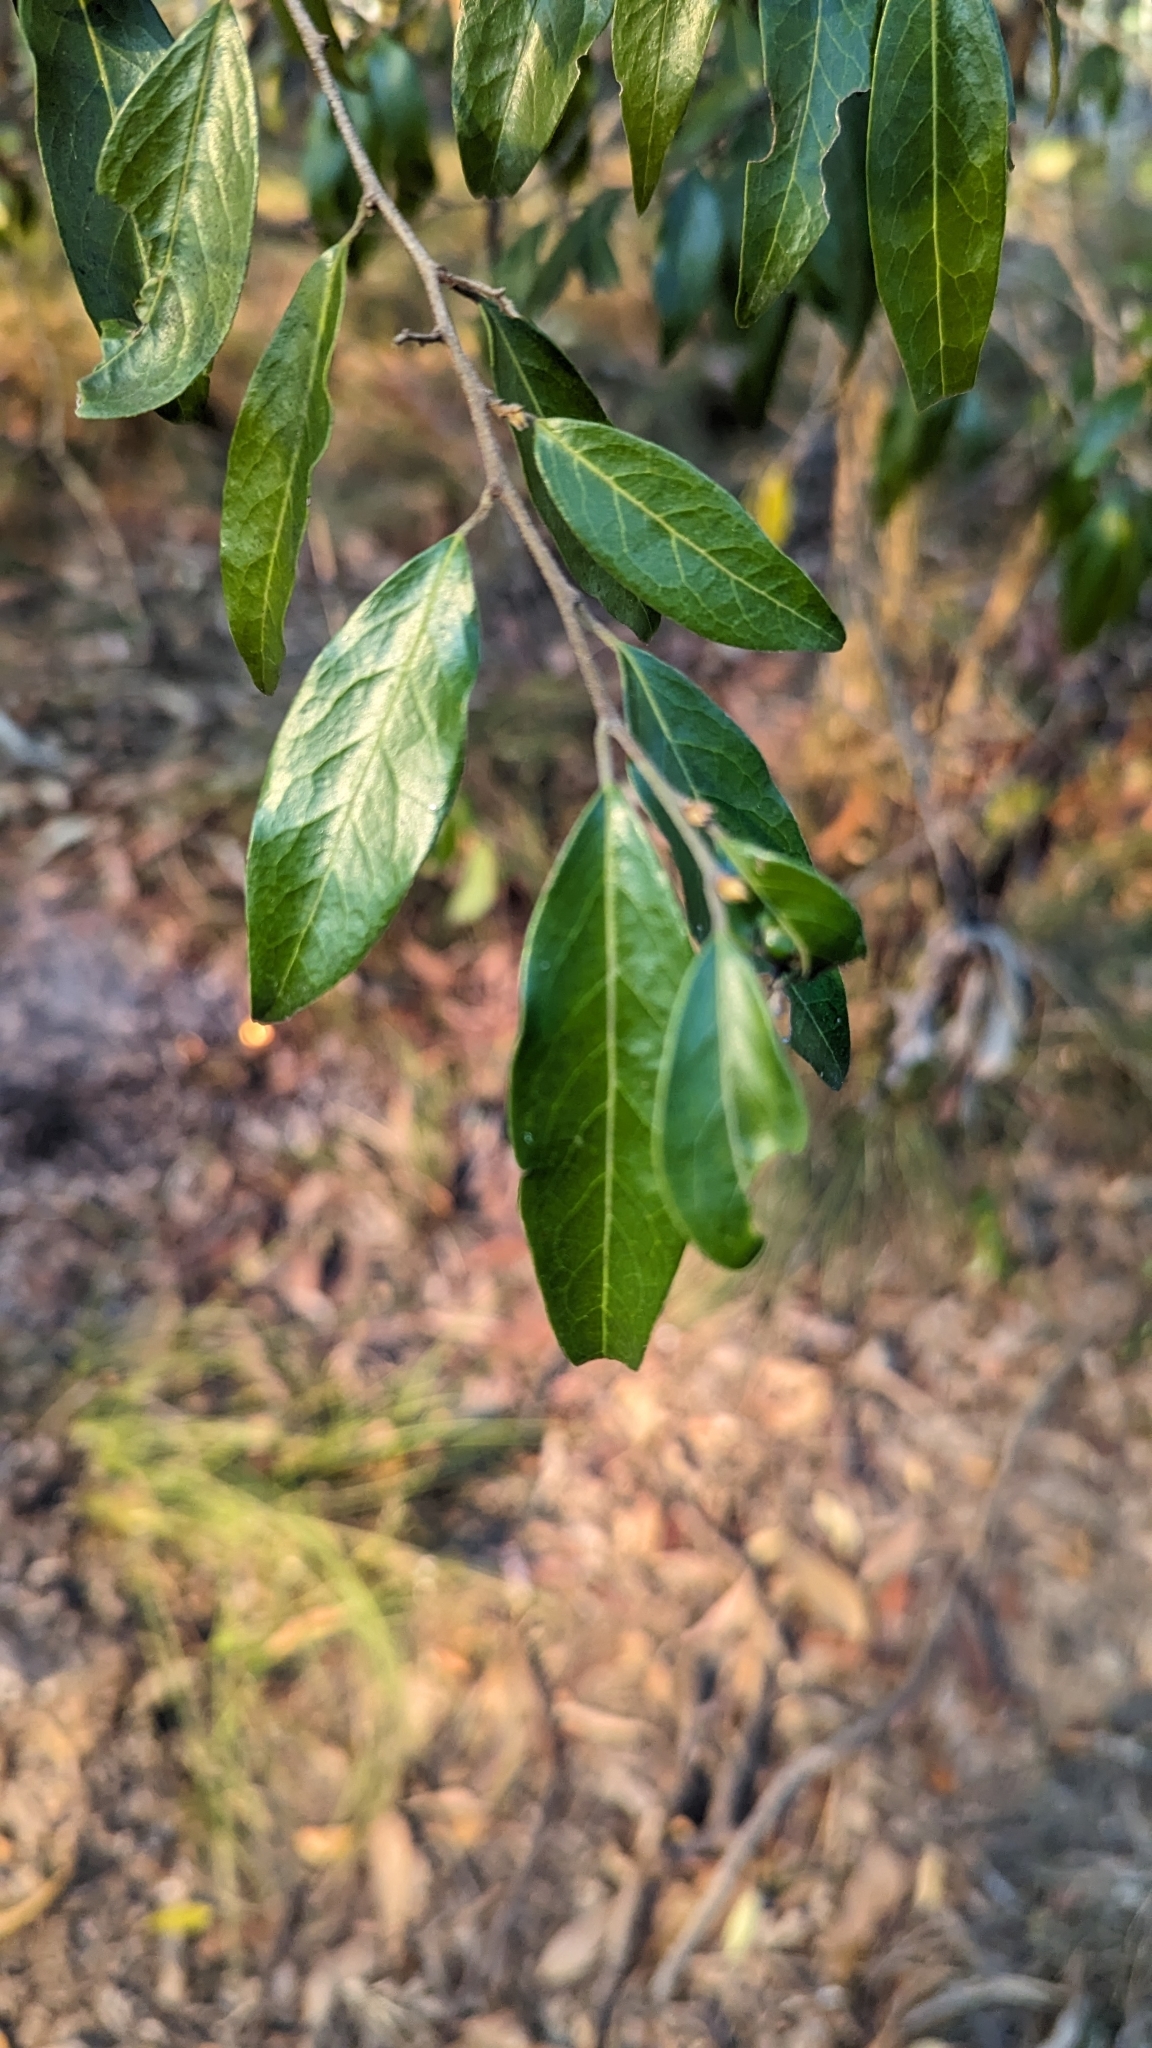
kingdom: Plantae
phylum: Tracheophyta
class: Magnoliopsida
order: Malpighiales
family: Picrodendraceae
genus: Petalostigma
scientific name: Petalostigma triloculare
